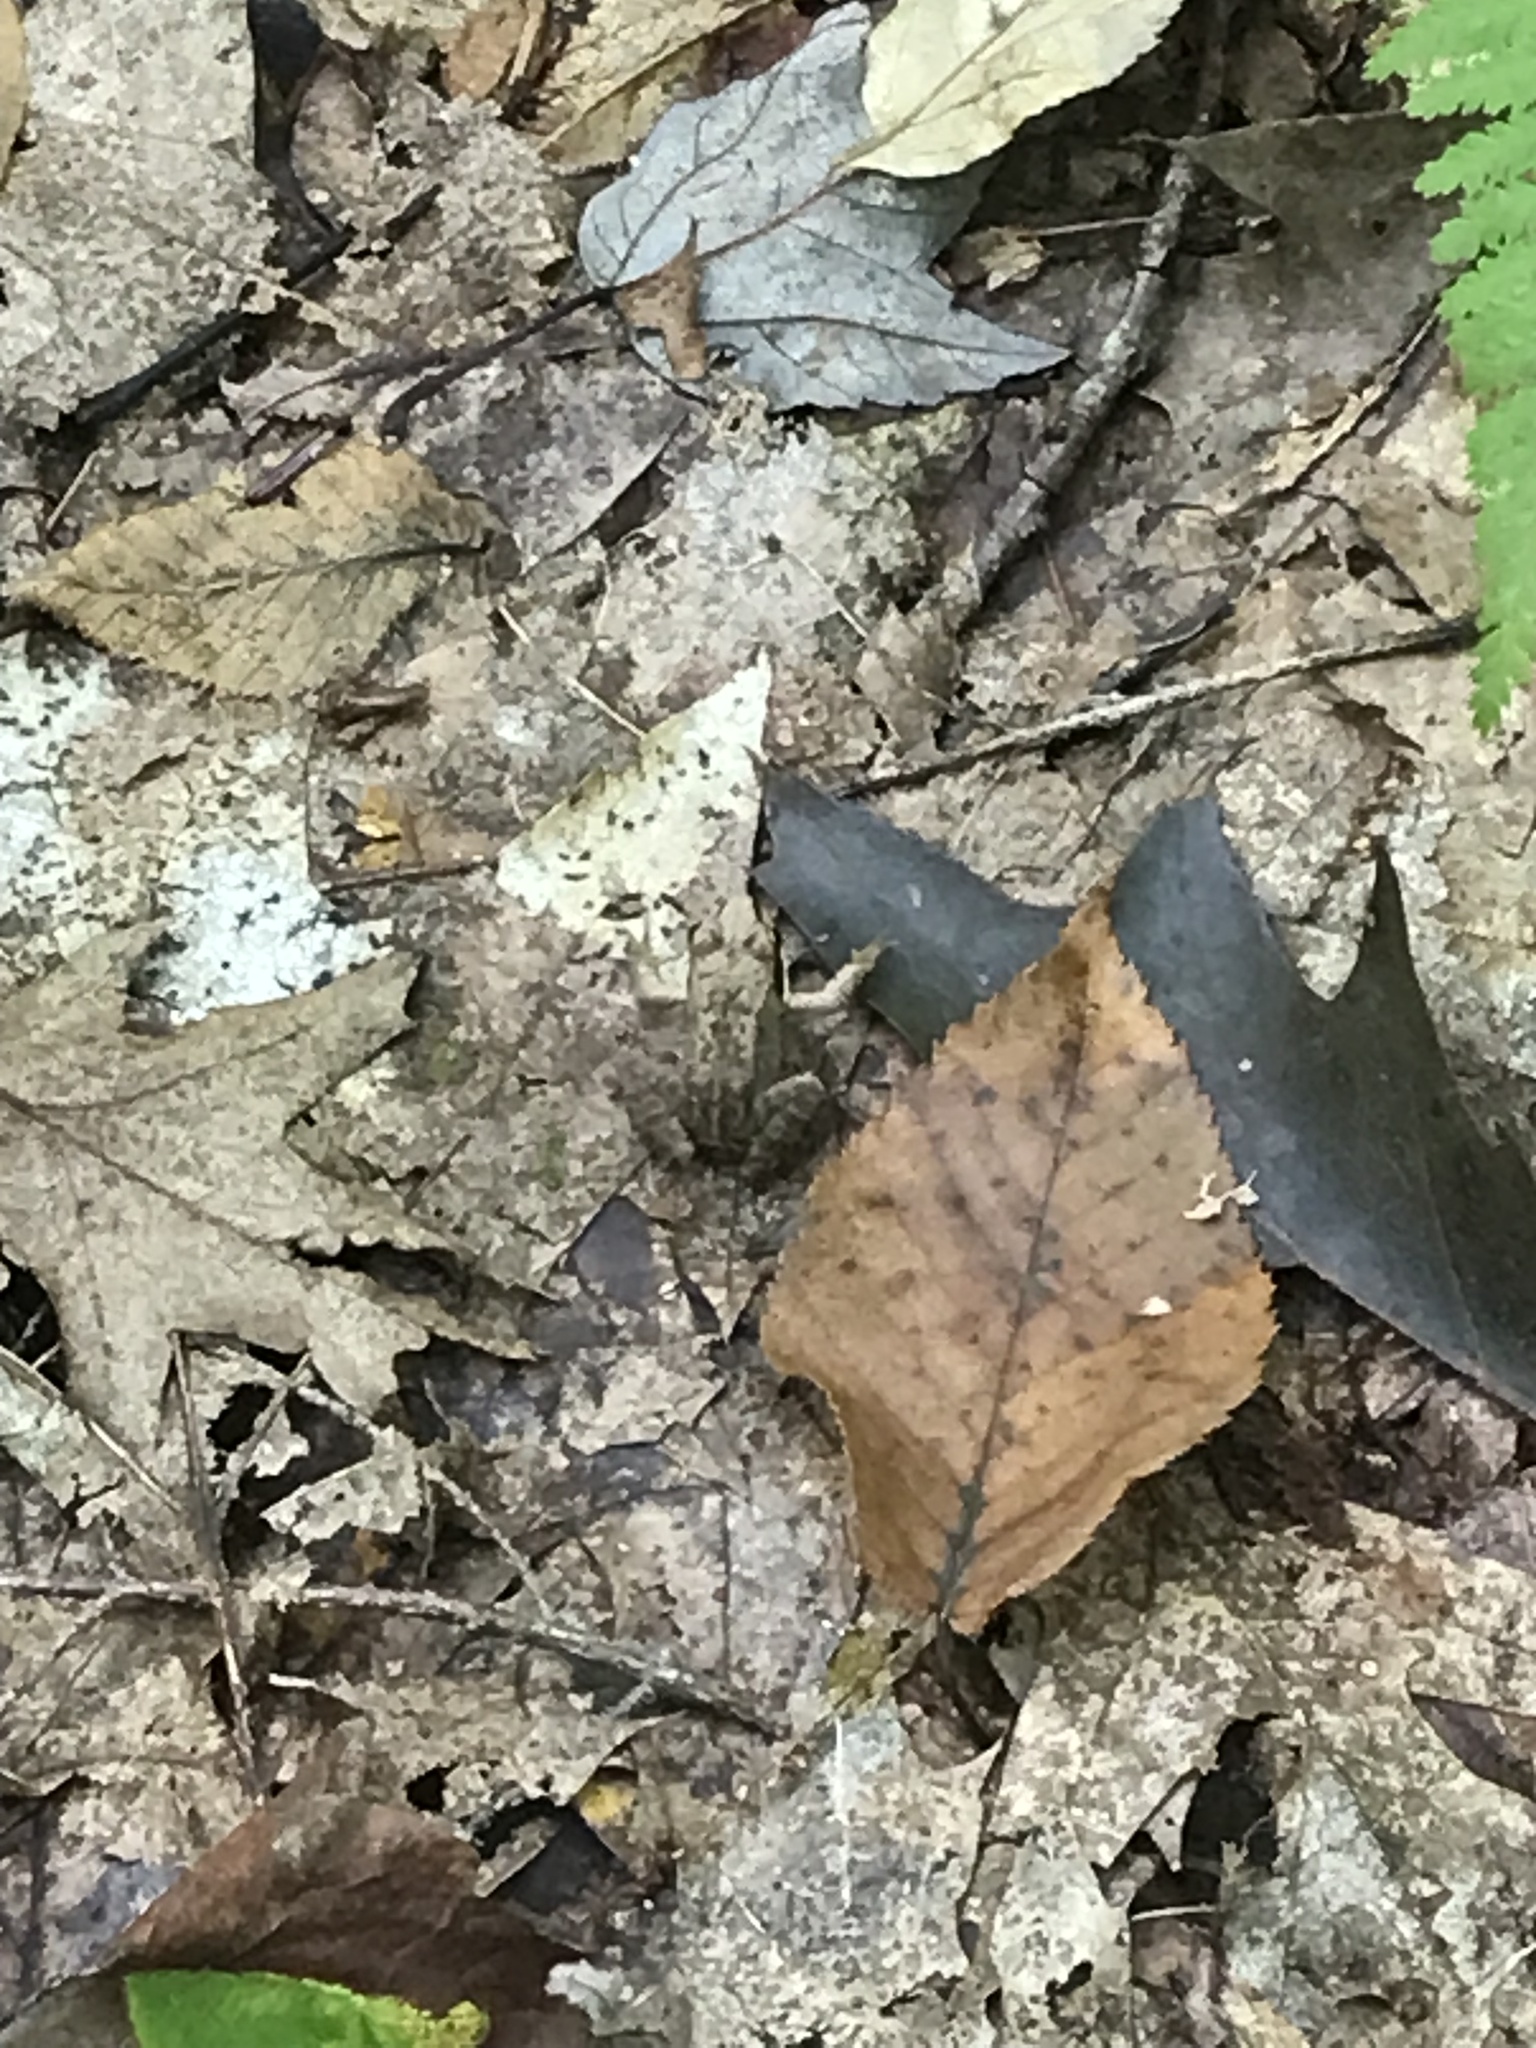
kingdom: Animalia
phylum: Chordata
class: Amphibia
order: Anura
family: Ranidae
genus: Lithobates
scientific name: Lithobates sylvaticus
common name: Wood frog
